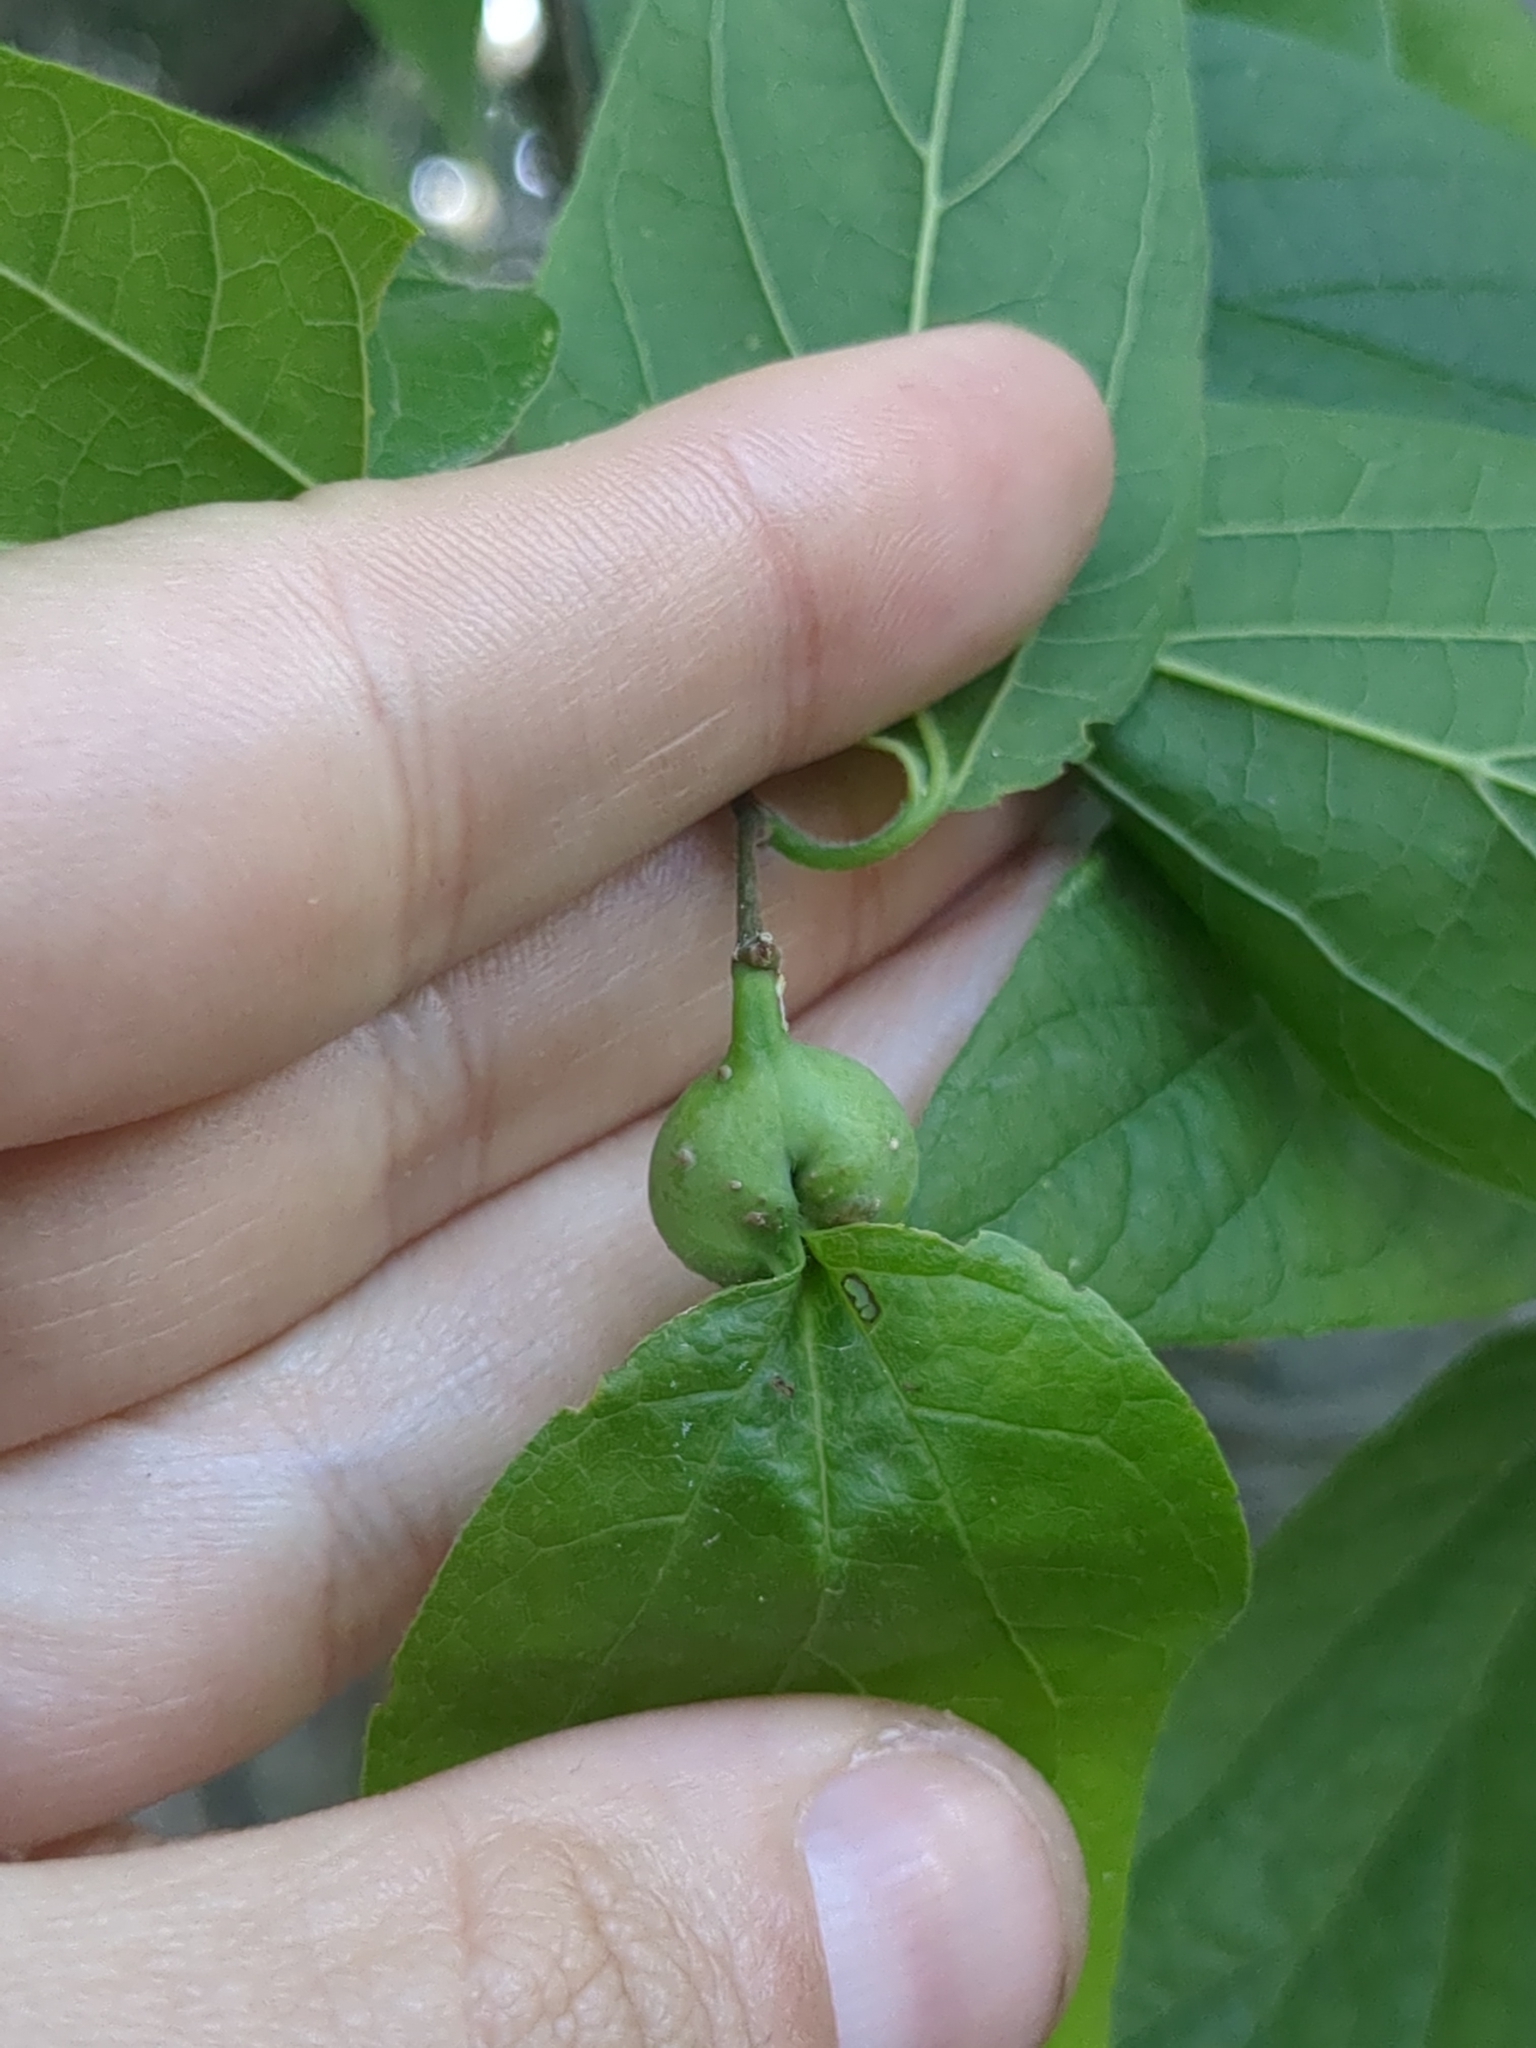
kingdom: Animalia
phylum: Arthropoda
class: Insecta
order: Hemiptera
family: Aphalaridae
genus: Pachypsylla
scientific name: Pachypsylla venusta
